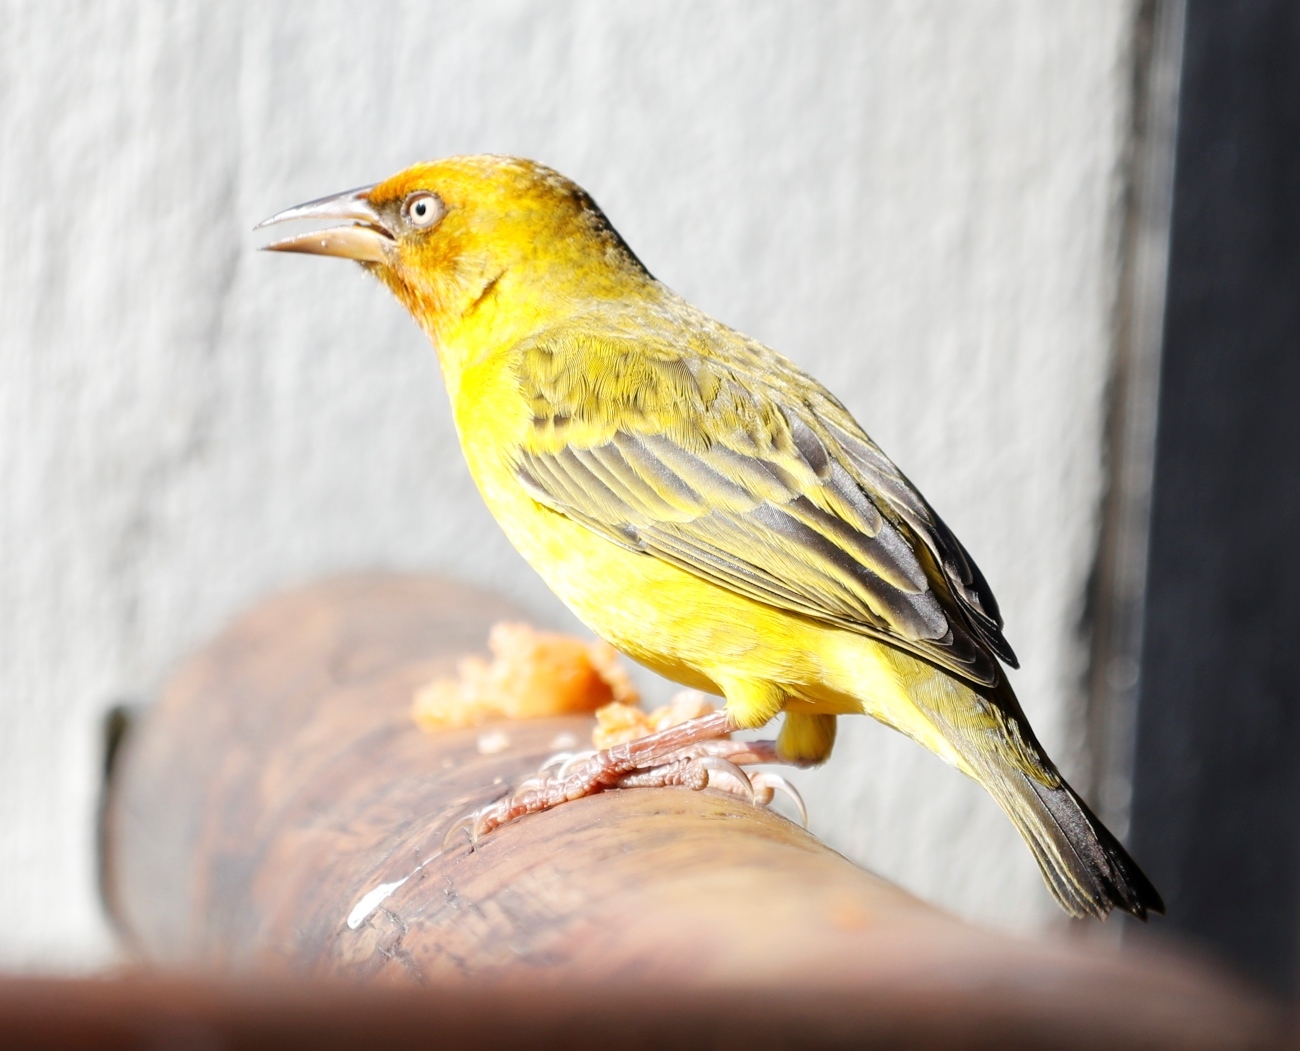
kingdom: Animalia
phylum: Chordata
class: Aves
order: Passeriformes
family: Ploceidae
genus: Ploceus
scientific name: Ploceus capensis
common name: Cape weaver
